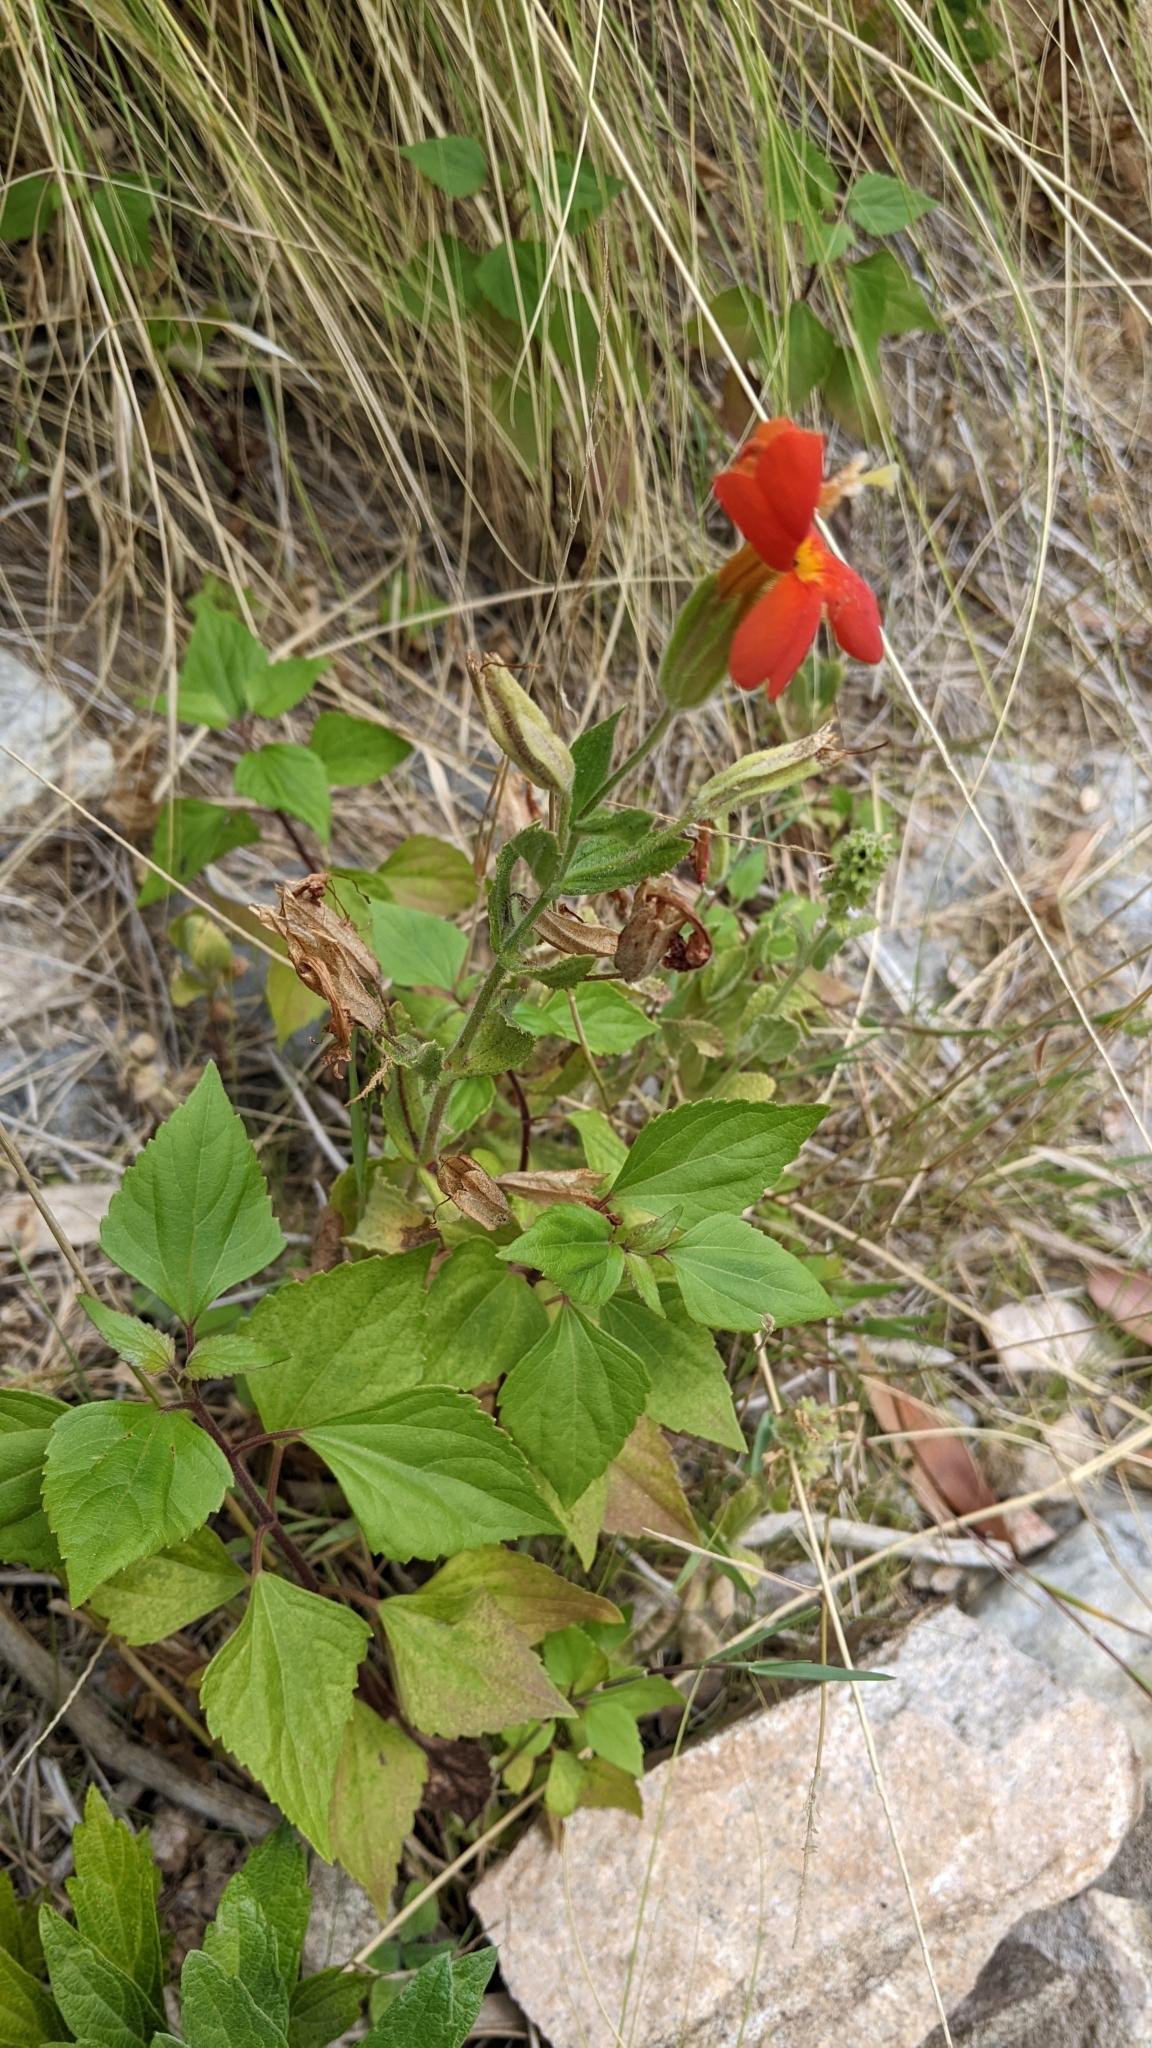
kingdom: Plantae
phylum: Tracheophyta
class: Magnoliopsida
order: Lamiales
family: Phrymaceae
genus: Erythranthe
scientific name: Erythranthe cardinalis
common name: Scarlet monkey-flower
